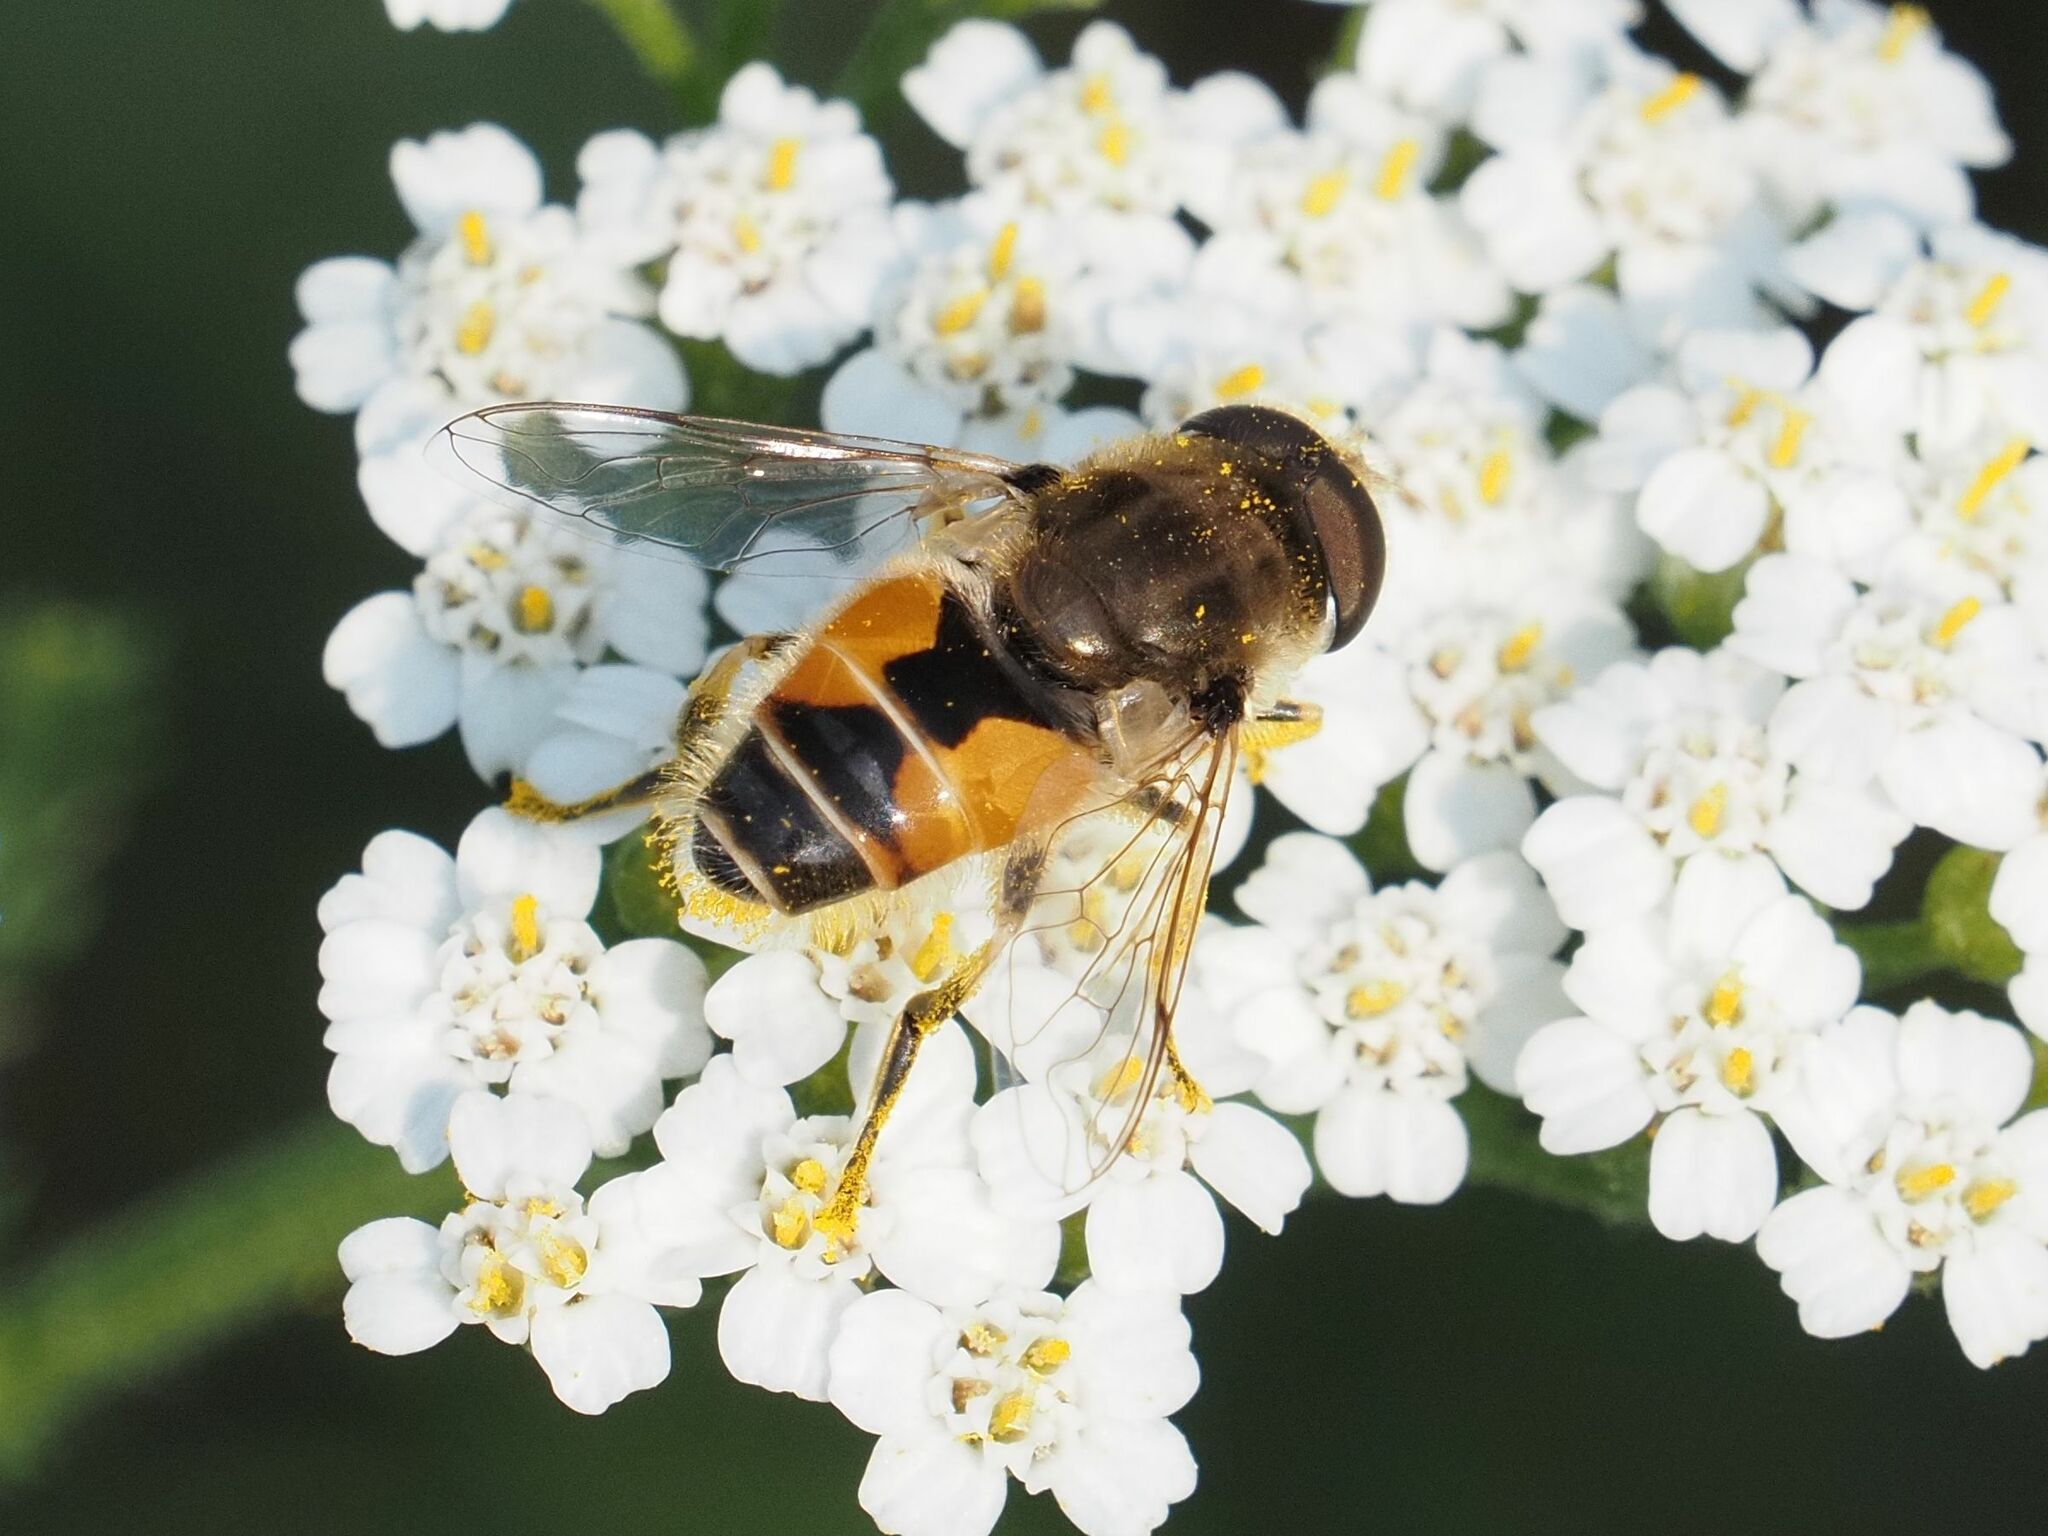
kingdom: Animalia
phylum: Arthropoda
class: Insecta
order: Diptera
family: Syrphidae
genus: Eristalis
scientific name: Eristalis arbustorum
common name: Hover fly
